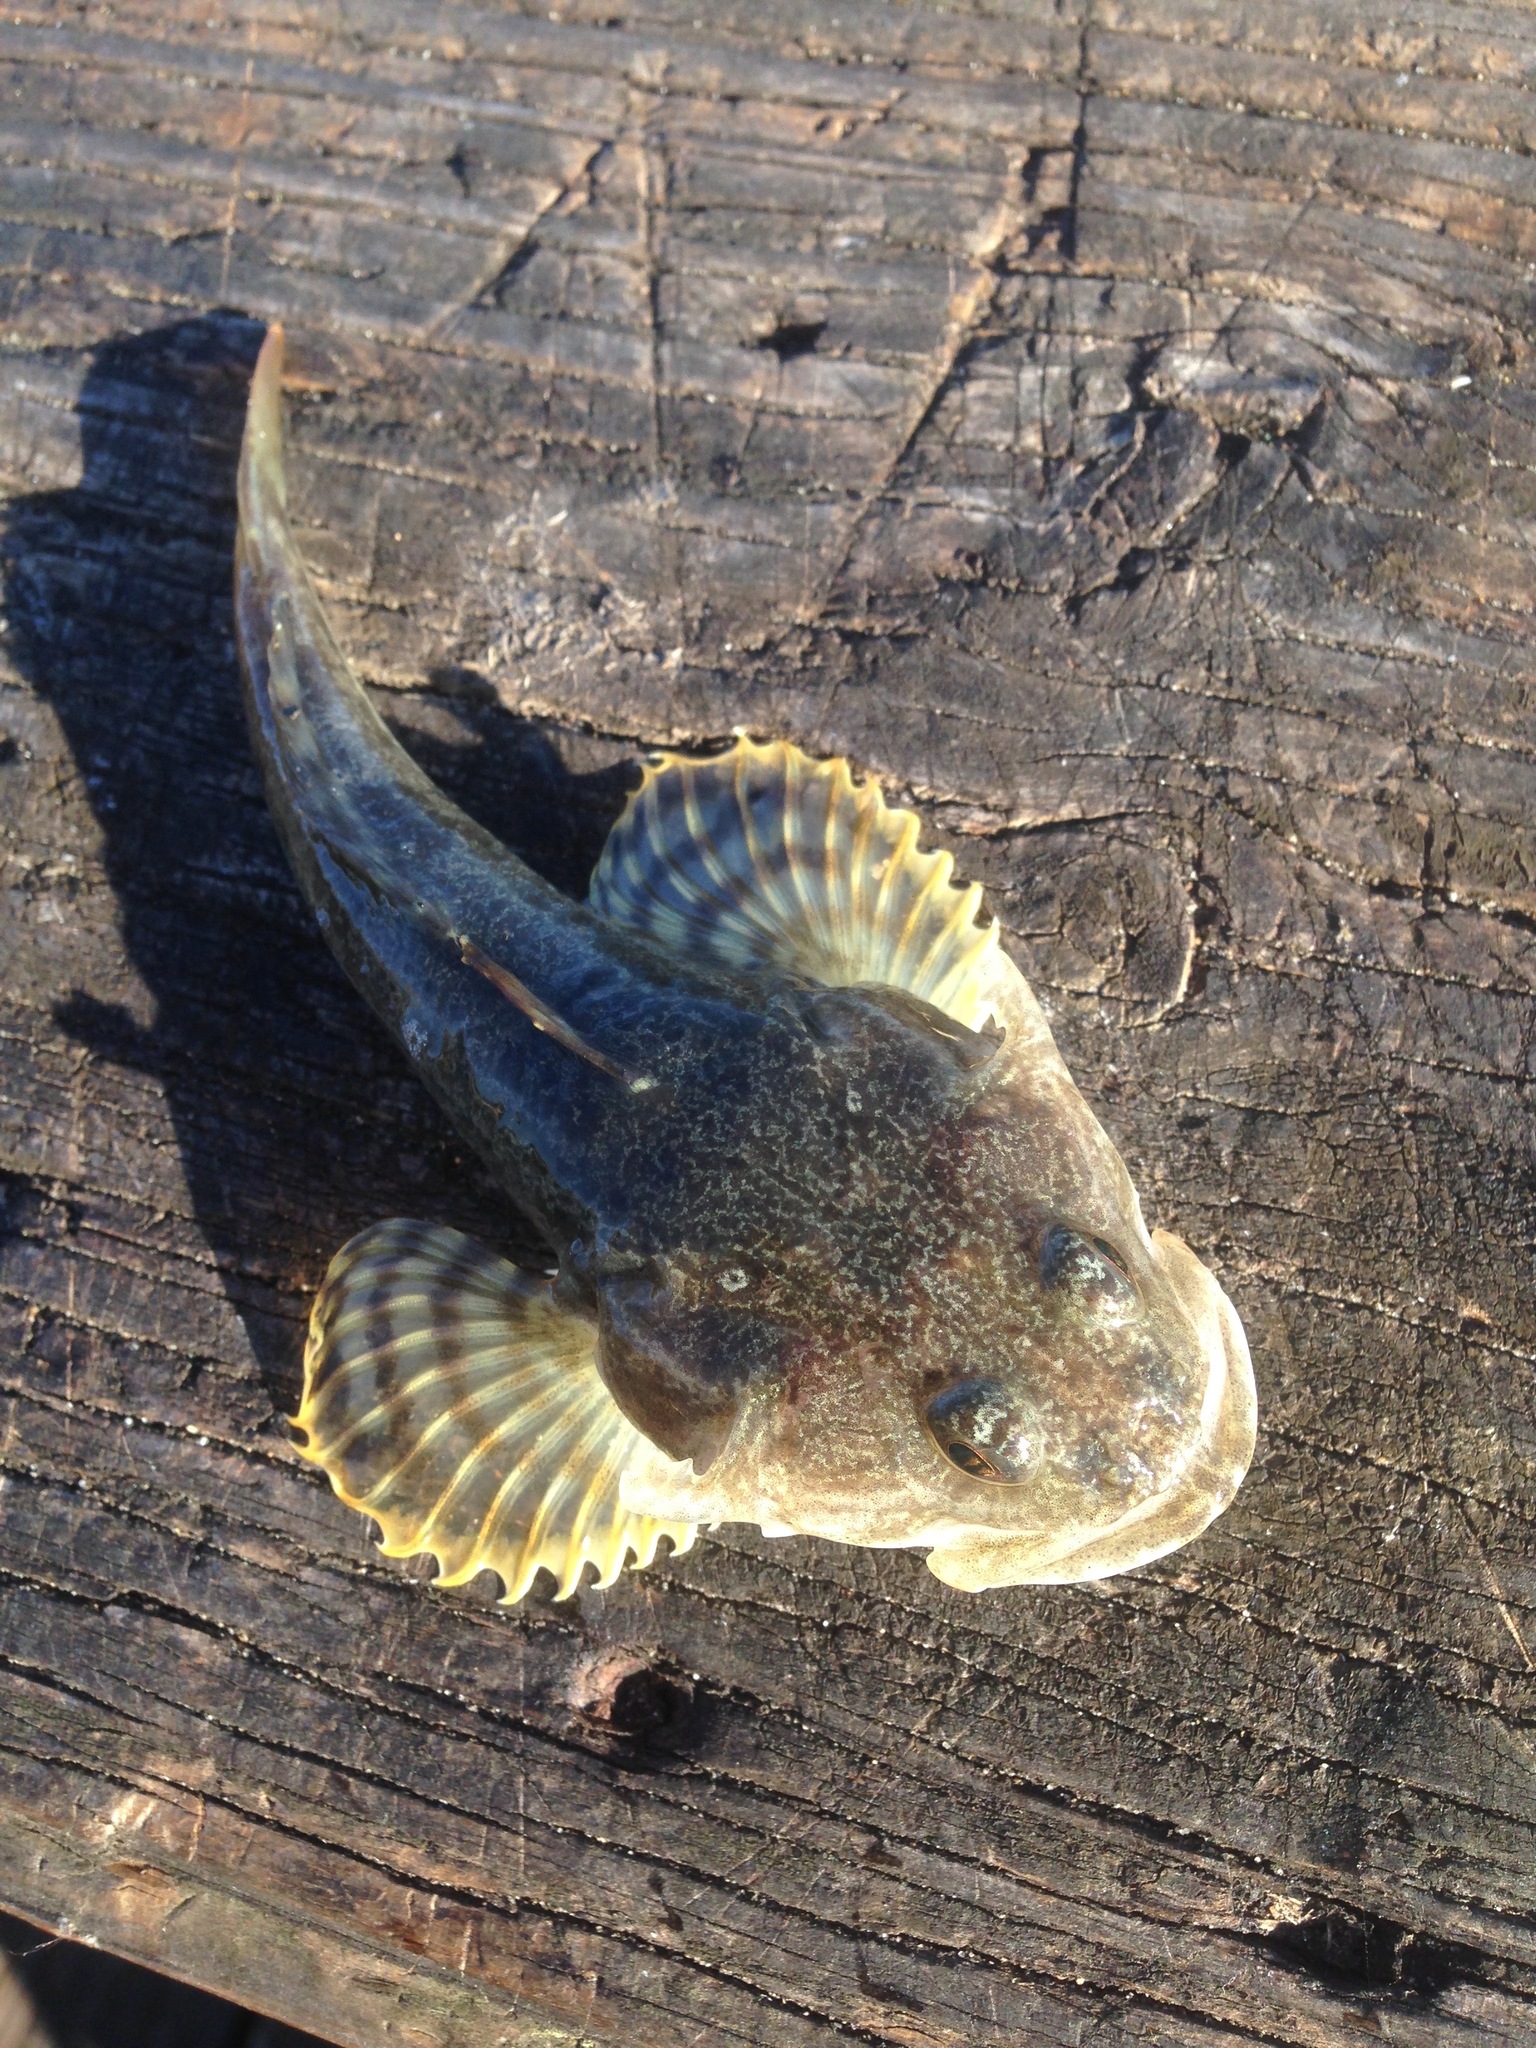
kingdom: Animalia
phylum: Chordata
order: Scorpaeniformes
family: Cottidae
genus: Leptocottus
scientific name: Leptocottus armatus
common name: Pacific staghorn sculpin
